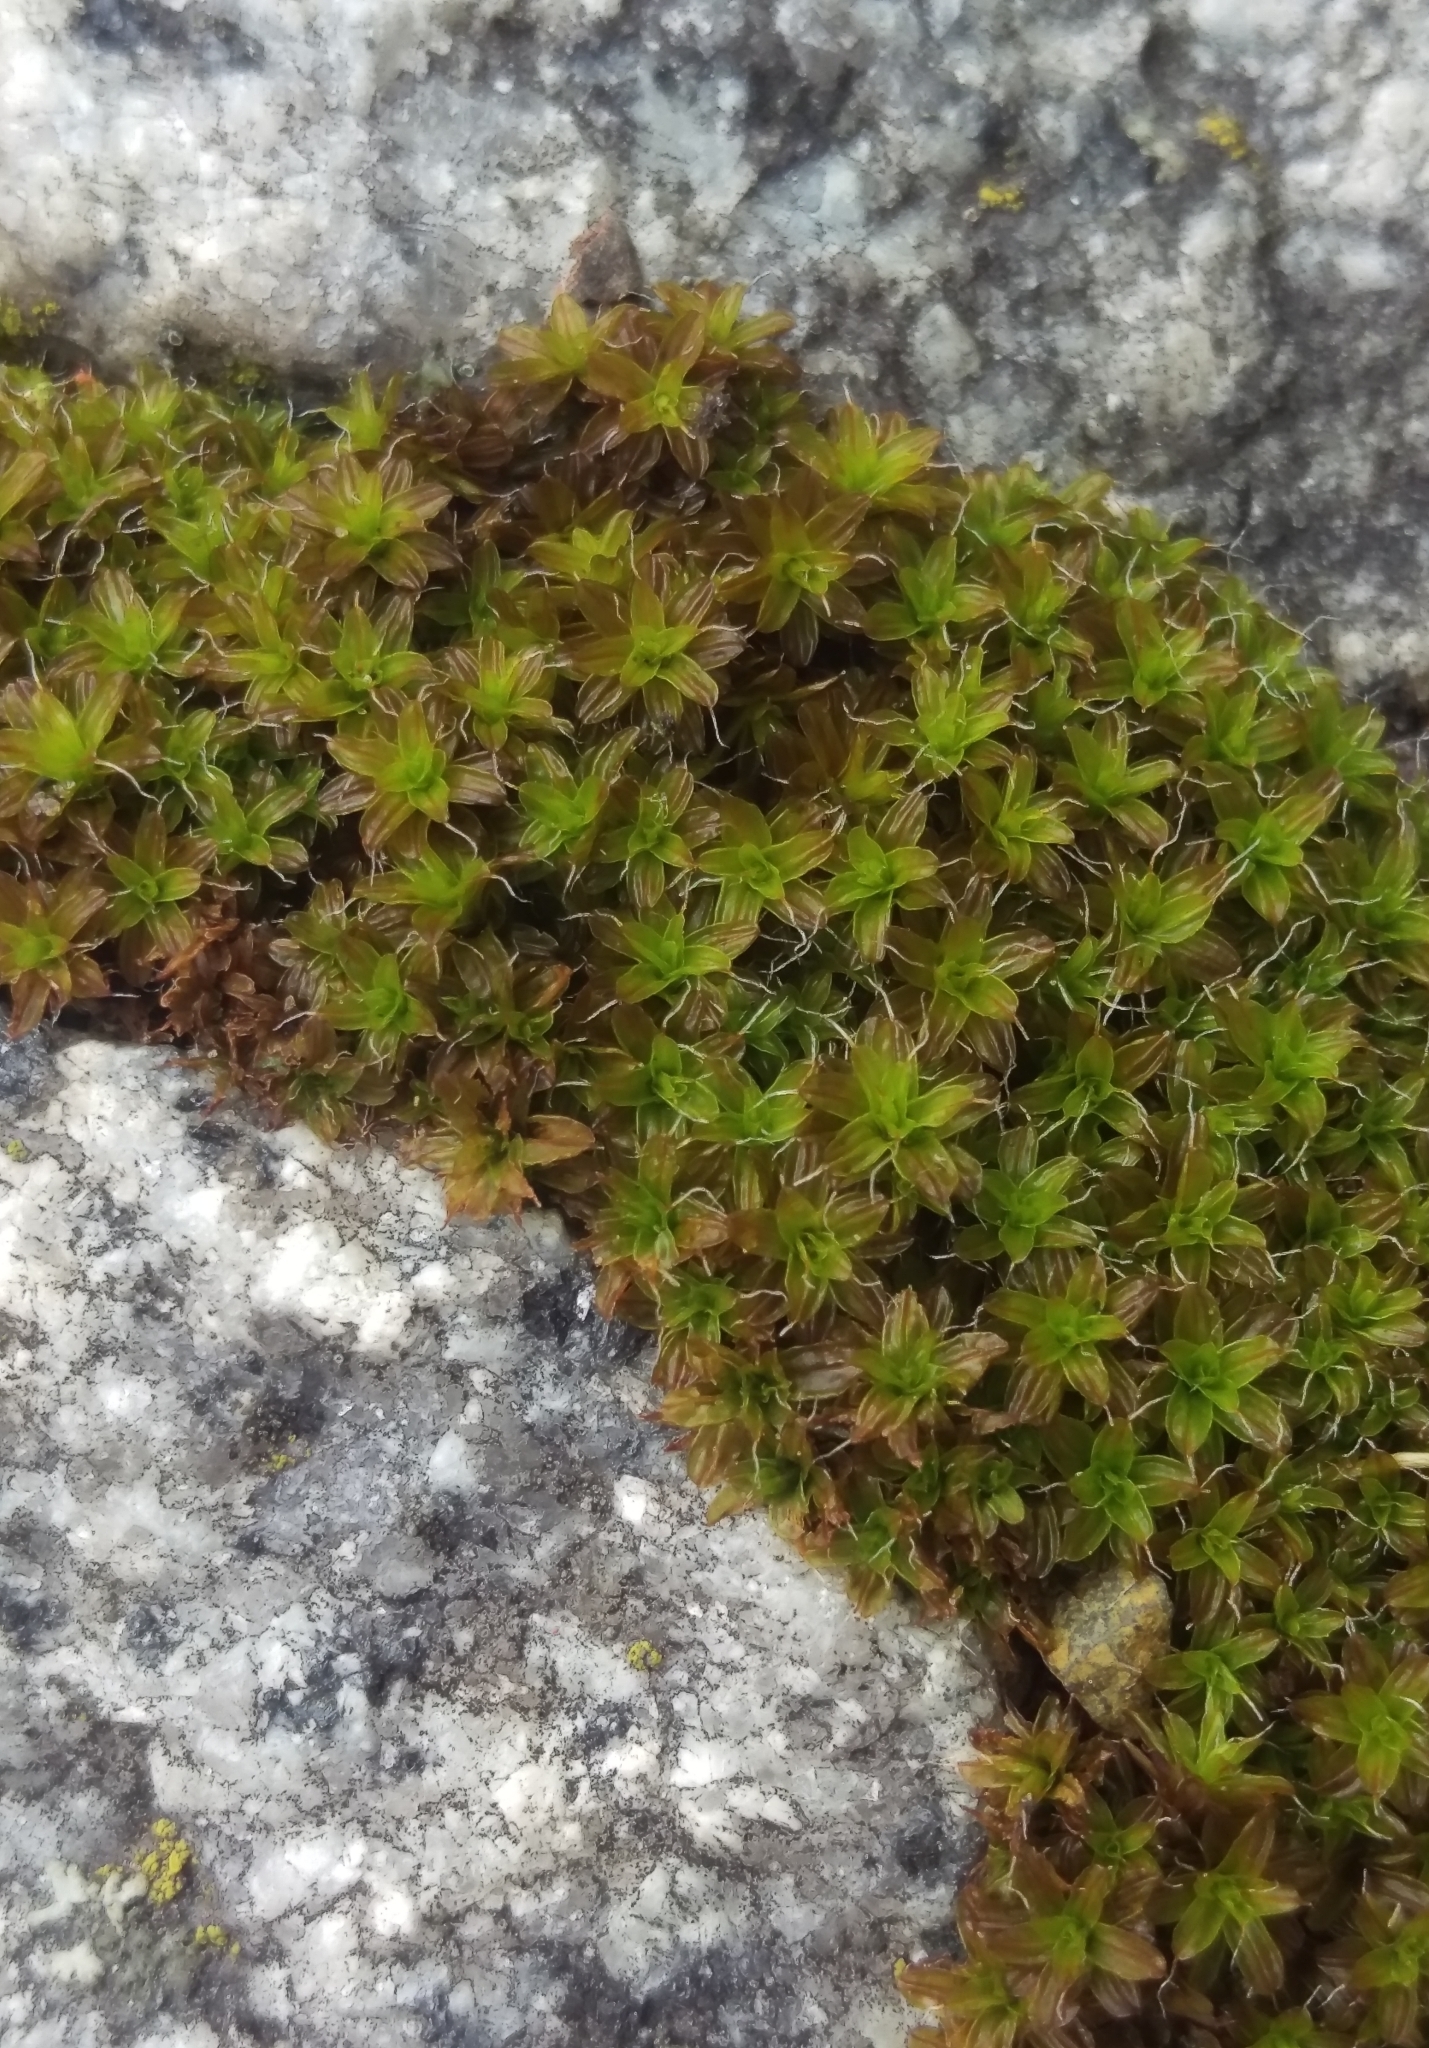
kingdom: Plantae
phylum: Bryophyta
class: Bryopsida
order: Pottiales
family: Pottiaceae
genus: Syntrichia
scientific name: Syntrichia ruralis
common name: Sidewalk screw moss
